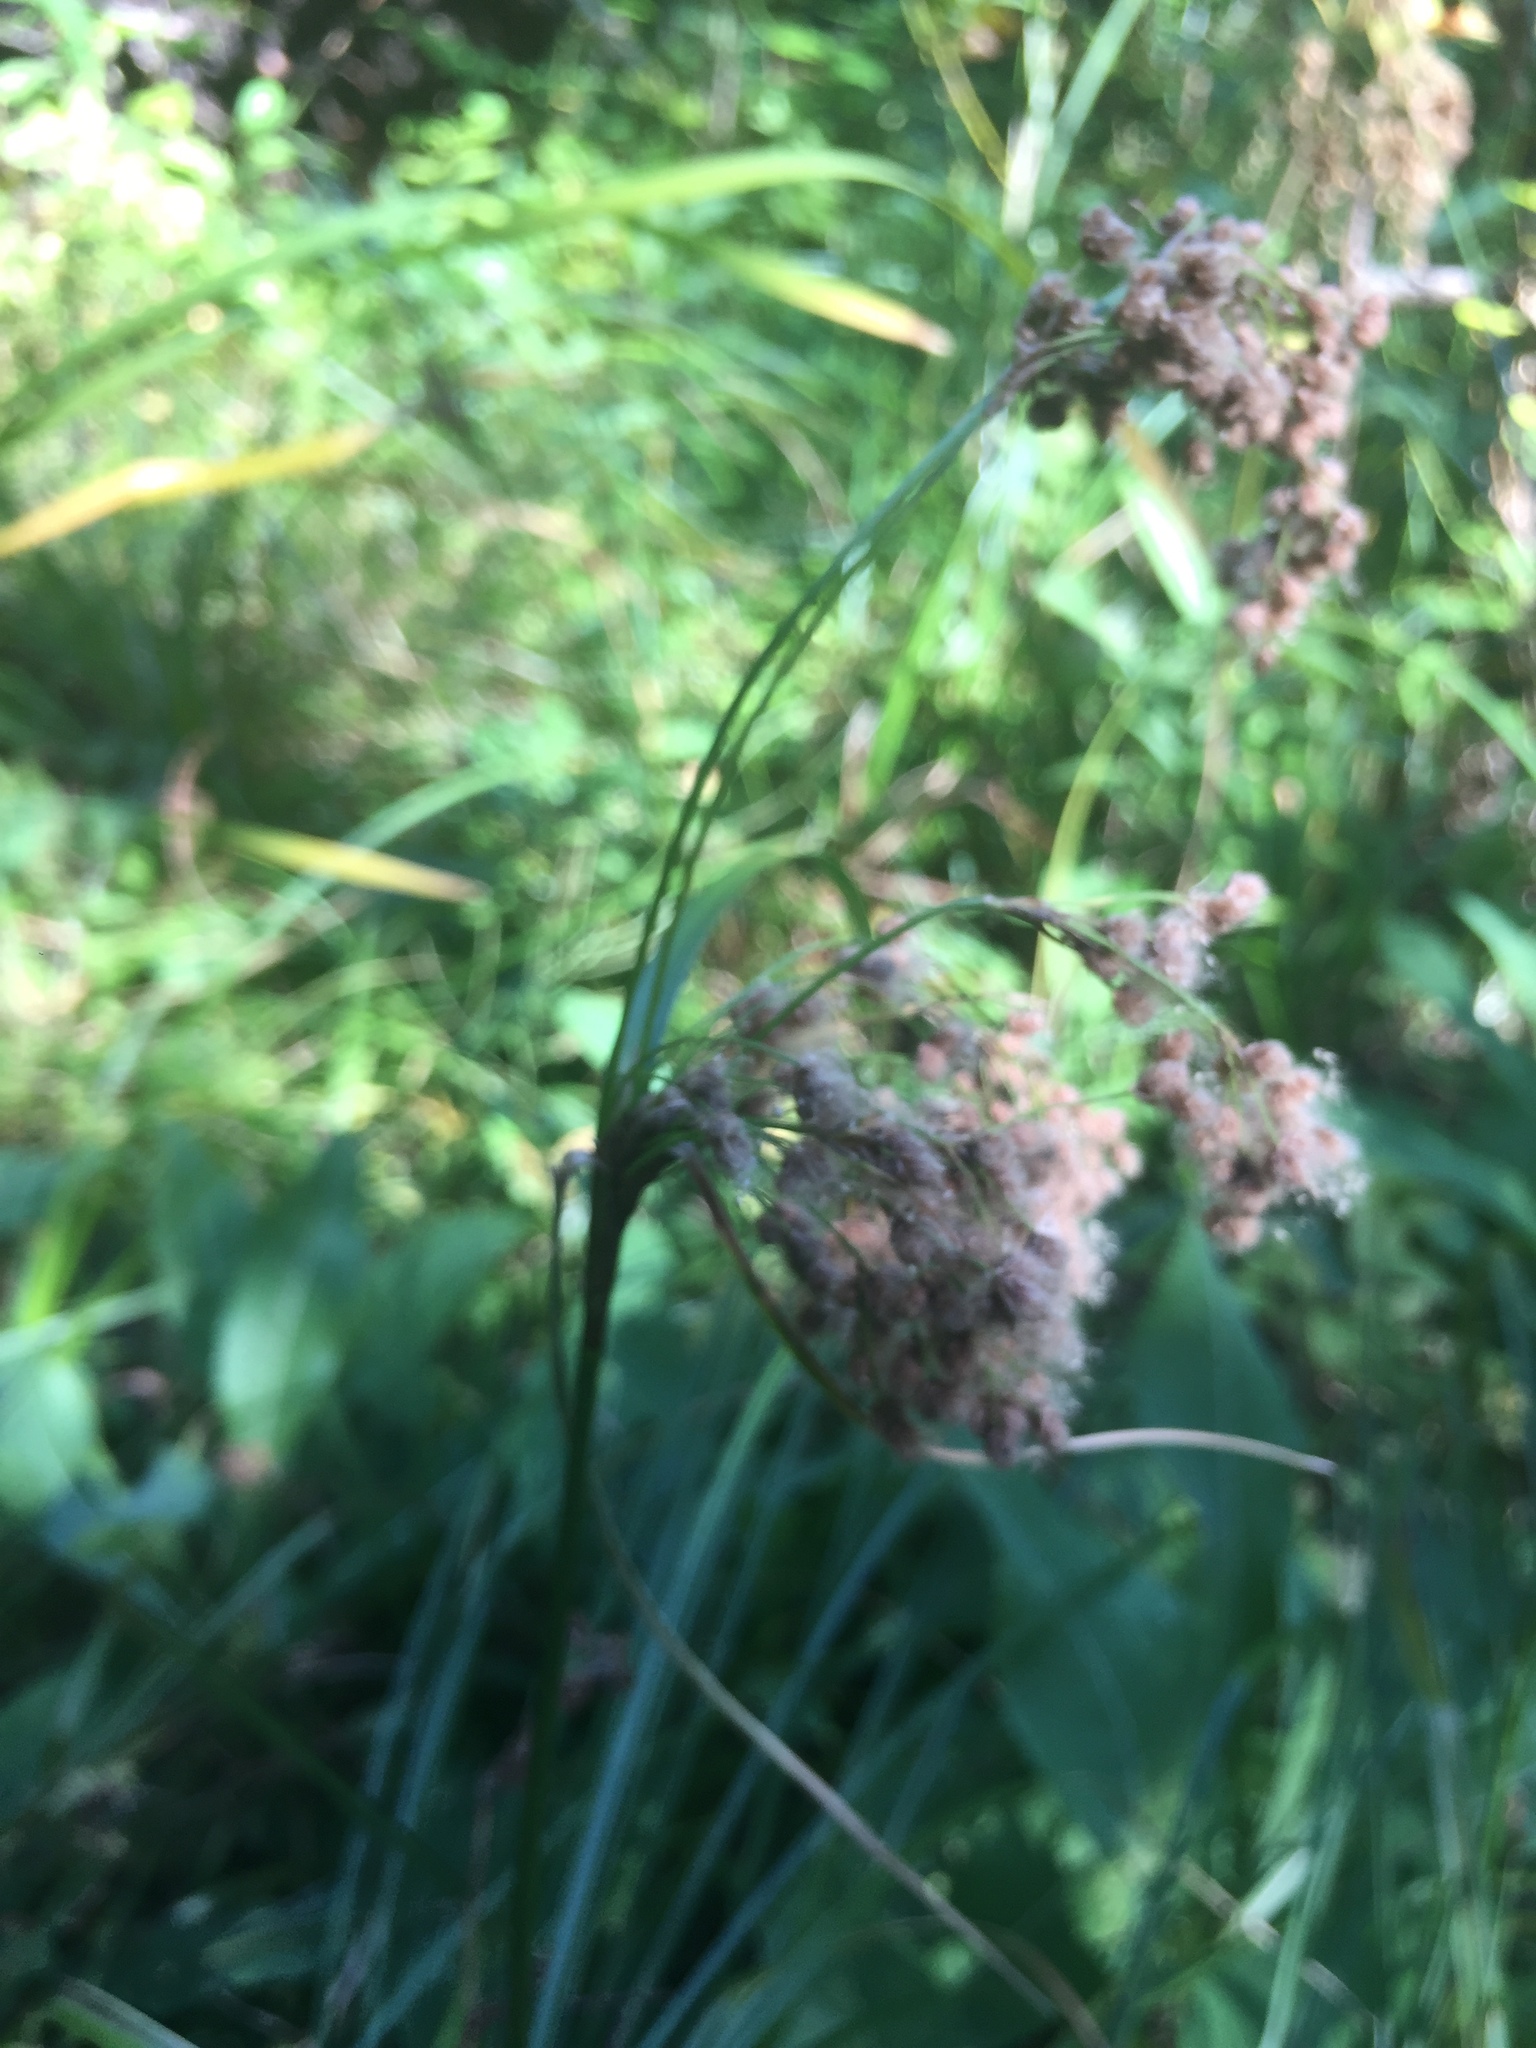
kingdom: Plantae
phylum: Tracheophyta
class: Liliopsida
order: Poales
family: Cyperaceae
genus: Scirpus
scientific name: Scirpus cyperinus
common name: Black-sheathed bulrush
